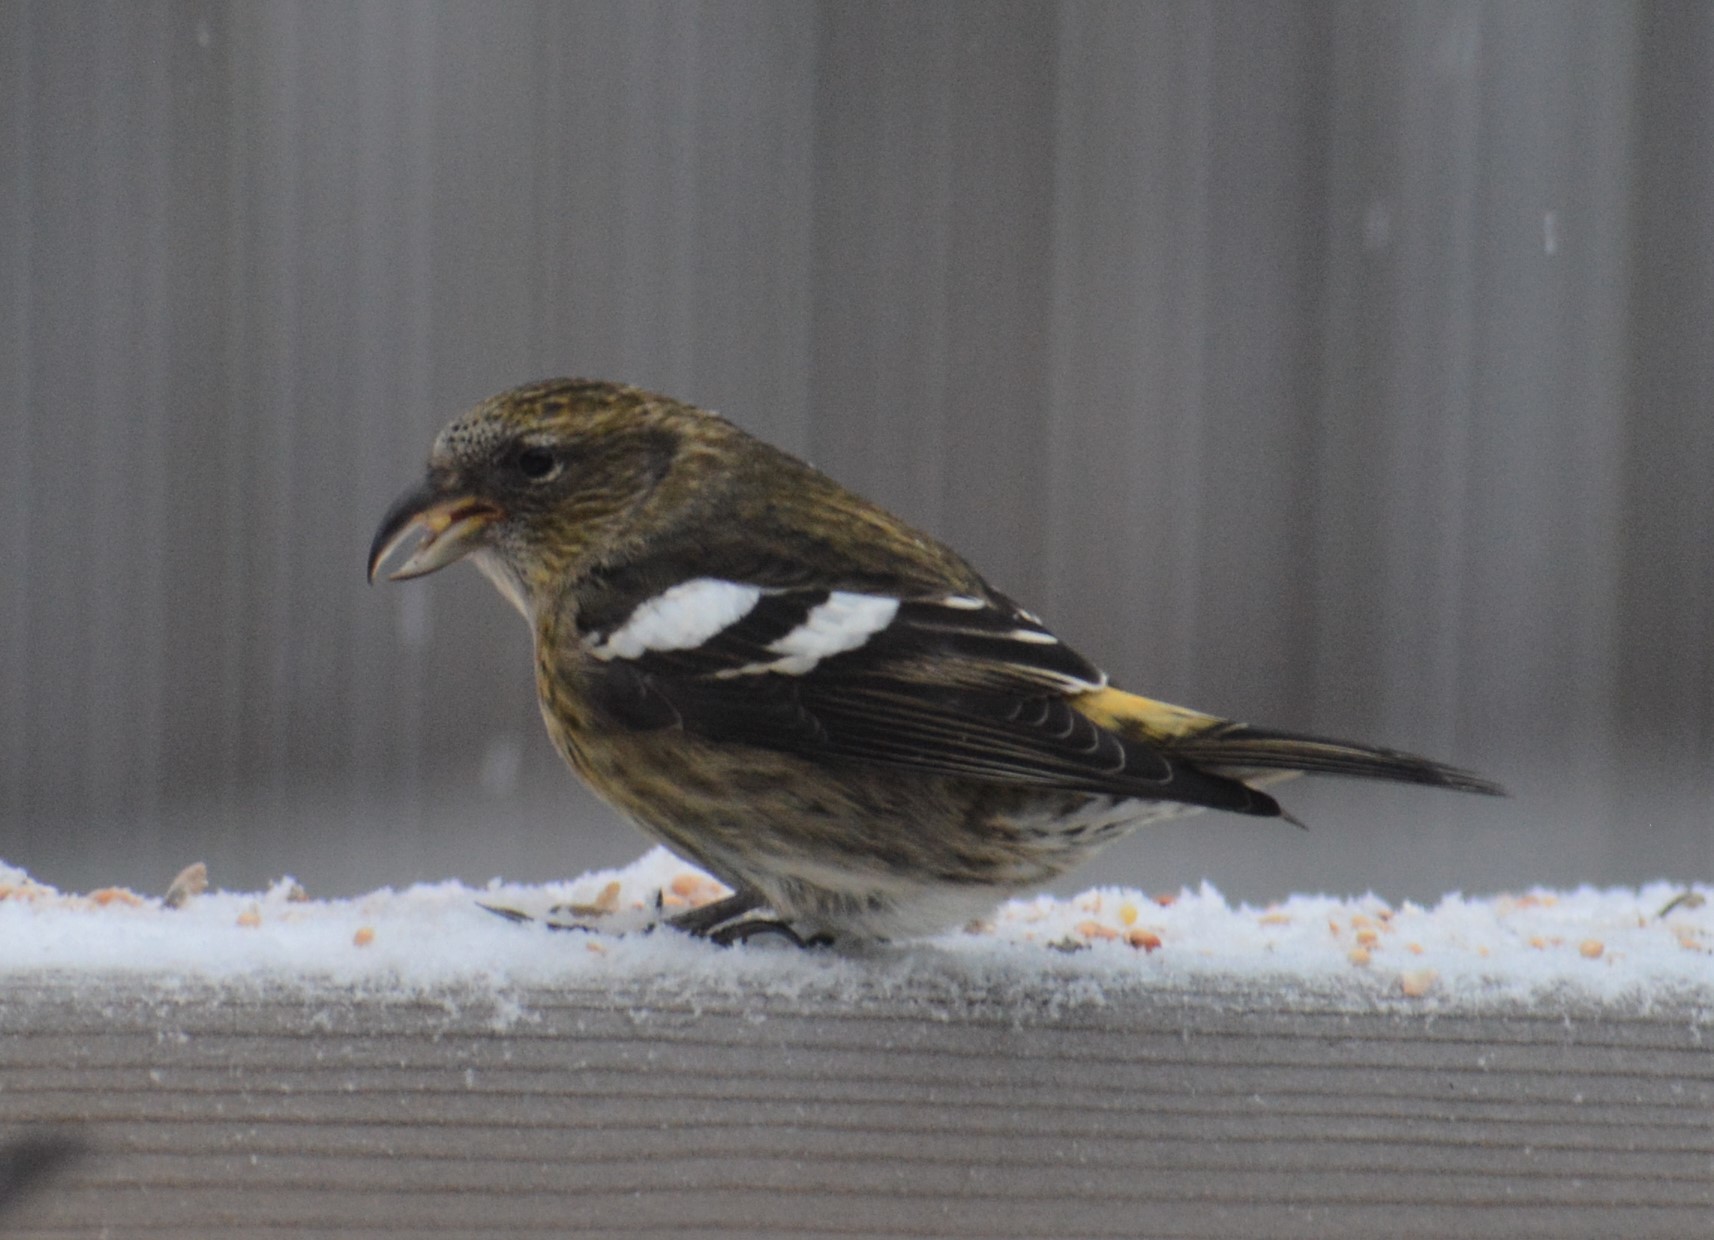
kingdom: Animalia
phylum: Chordata
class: Aves
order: Passeriformes
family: Fringillidae
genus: Loxia
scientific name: Loxia leucoptera
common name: Two-barred crossbill
